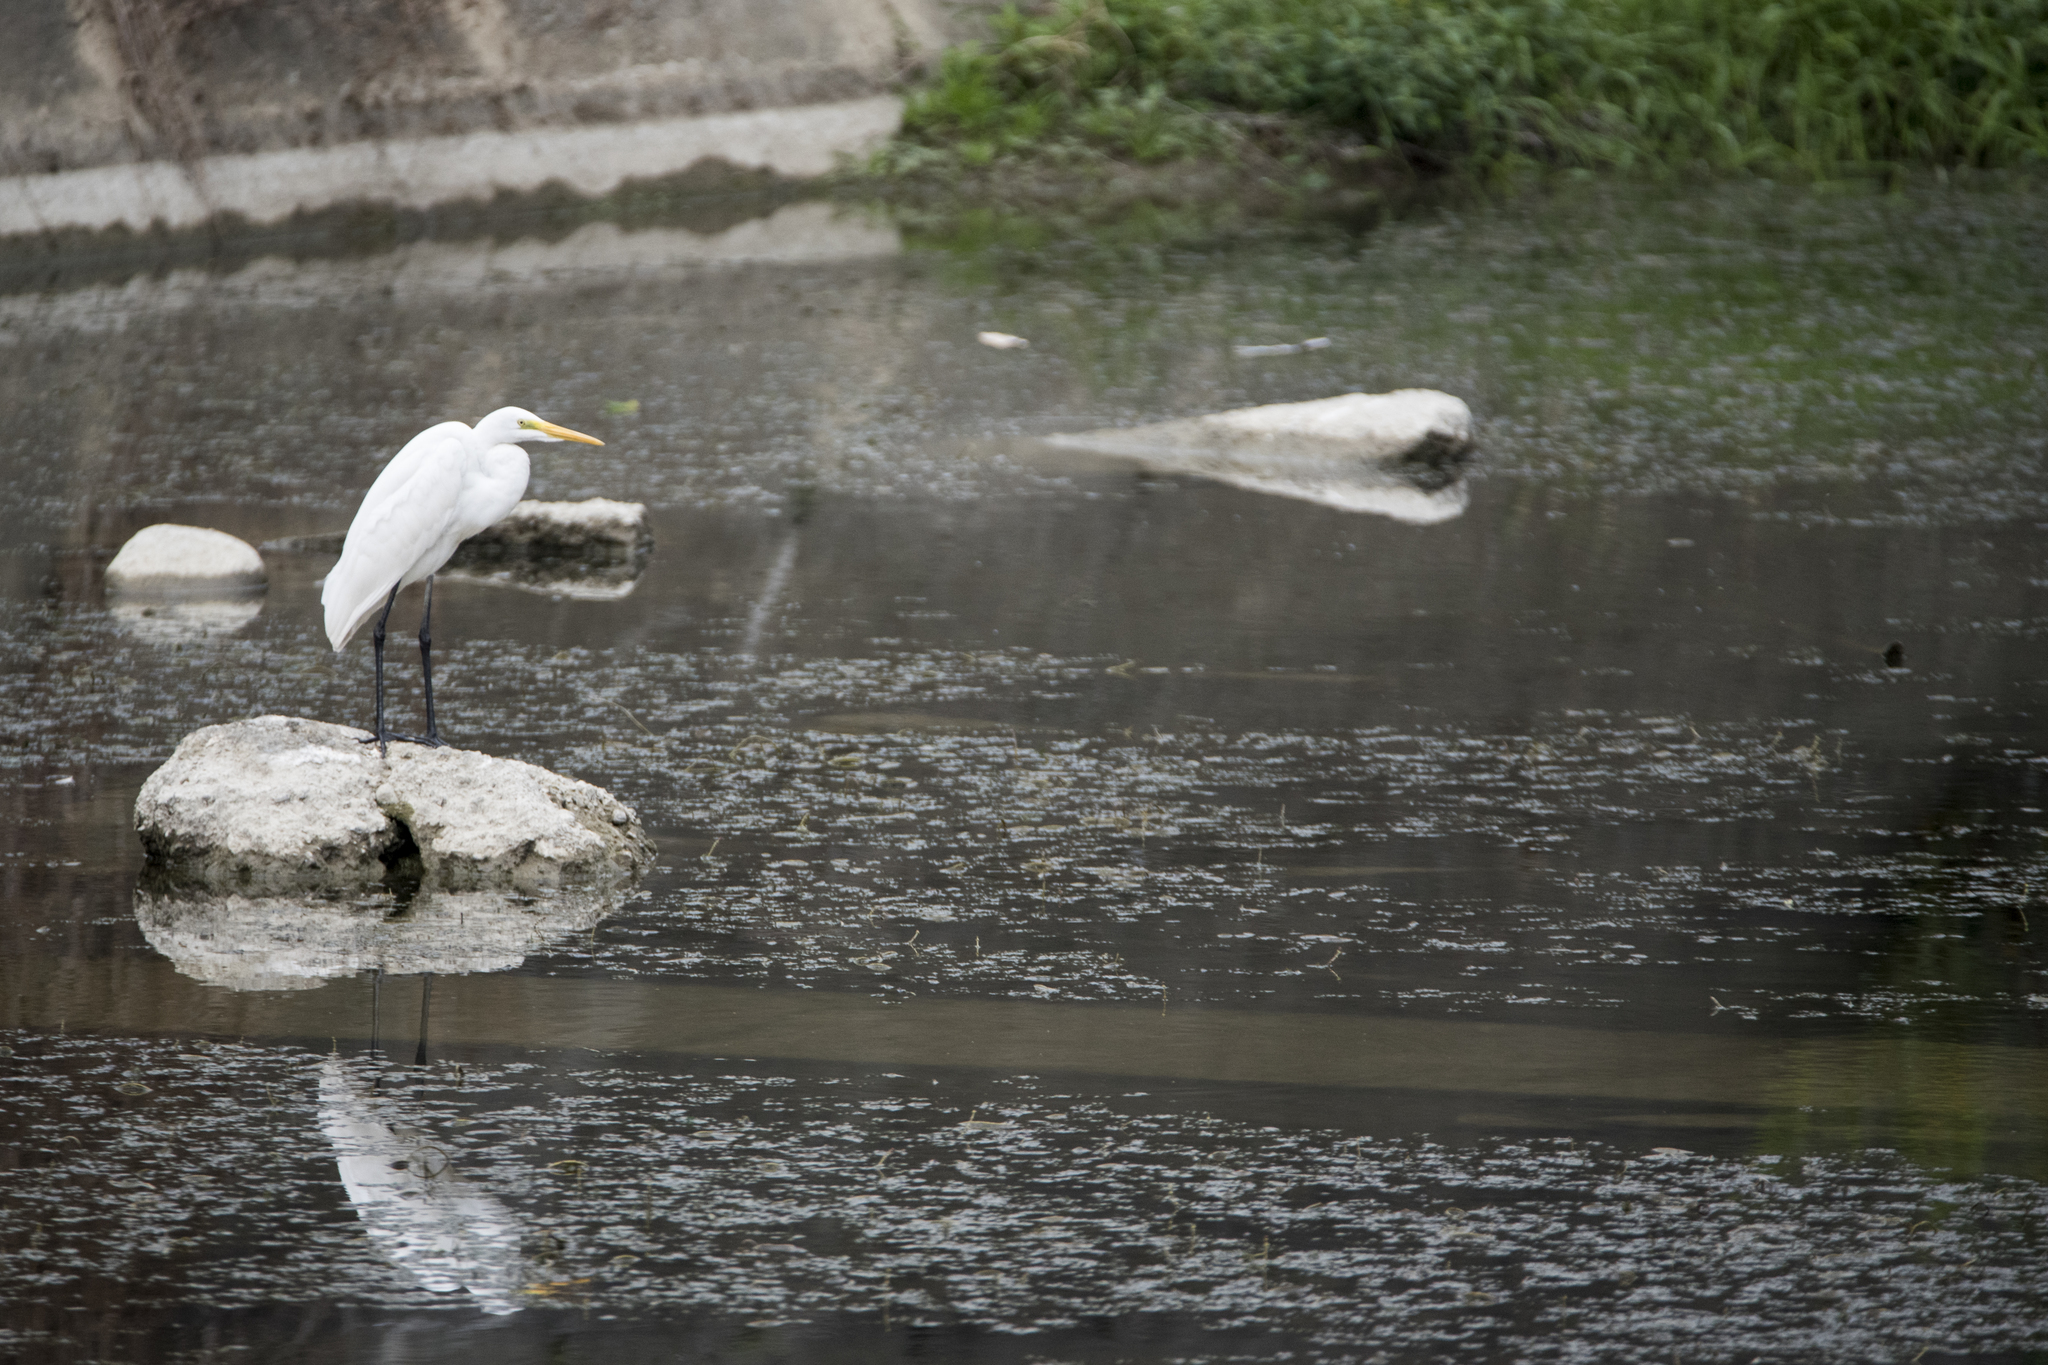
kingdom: Animalia
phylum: Chordata
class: Aves
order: Pelecaniformes
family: Ardeidae
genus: Ardea
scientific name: Ardea modesta
